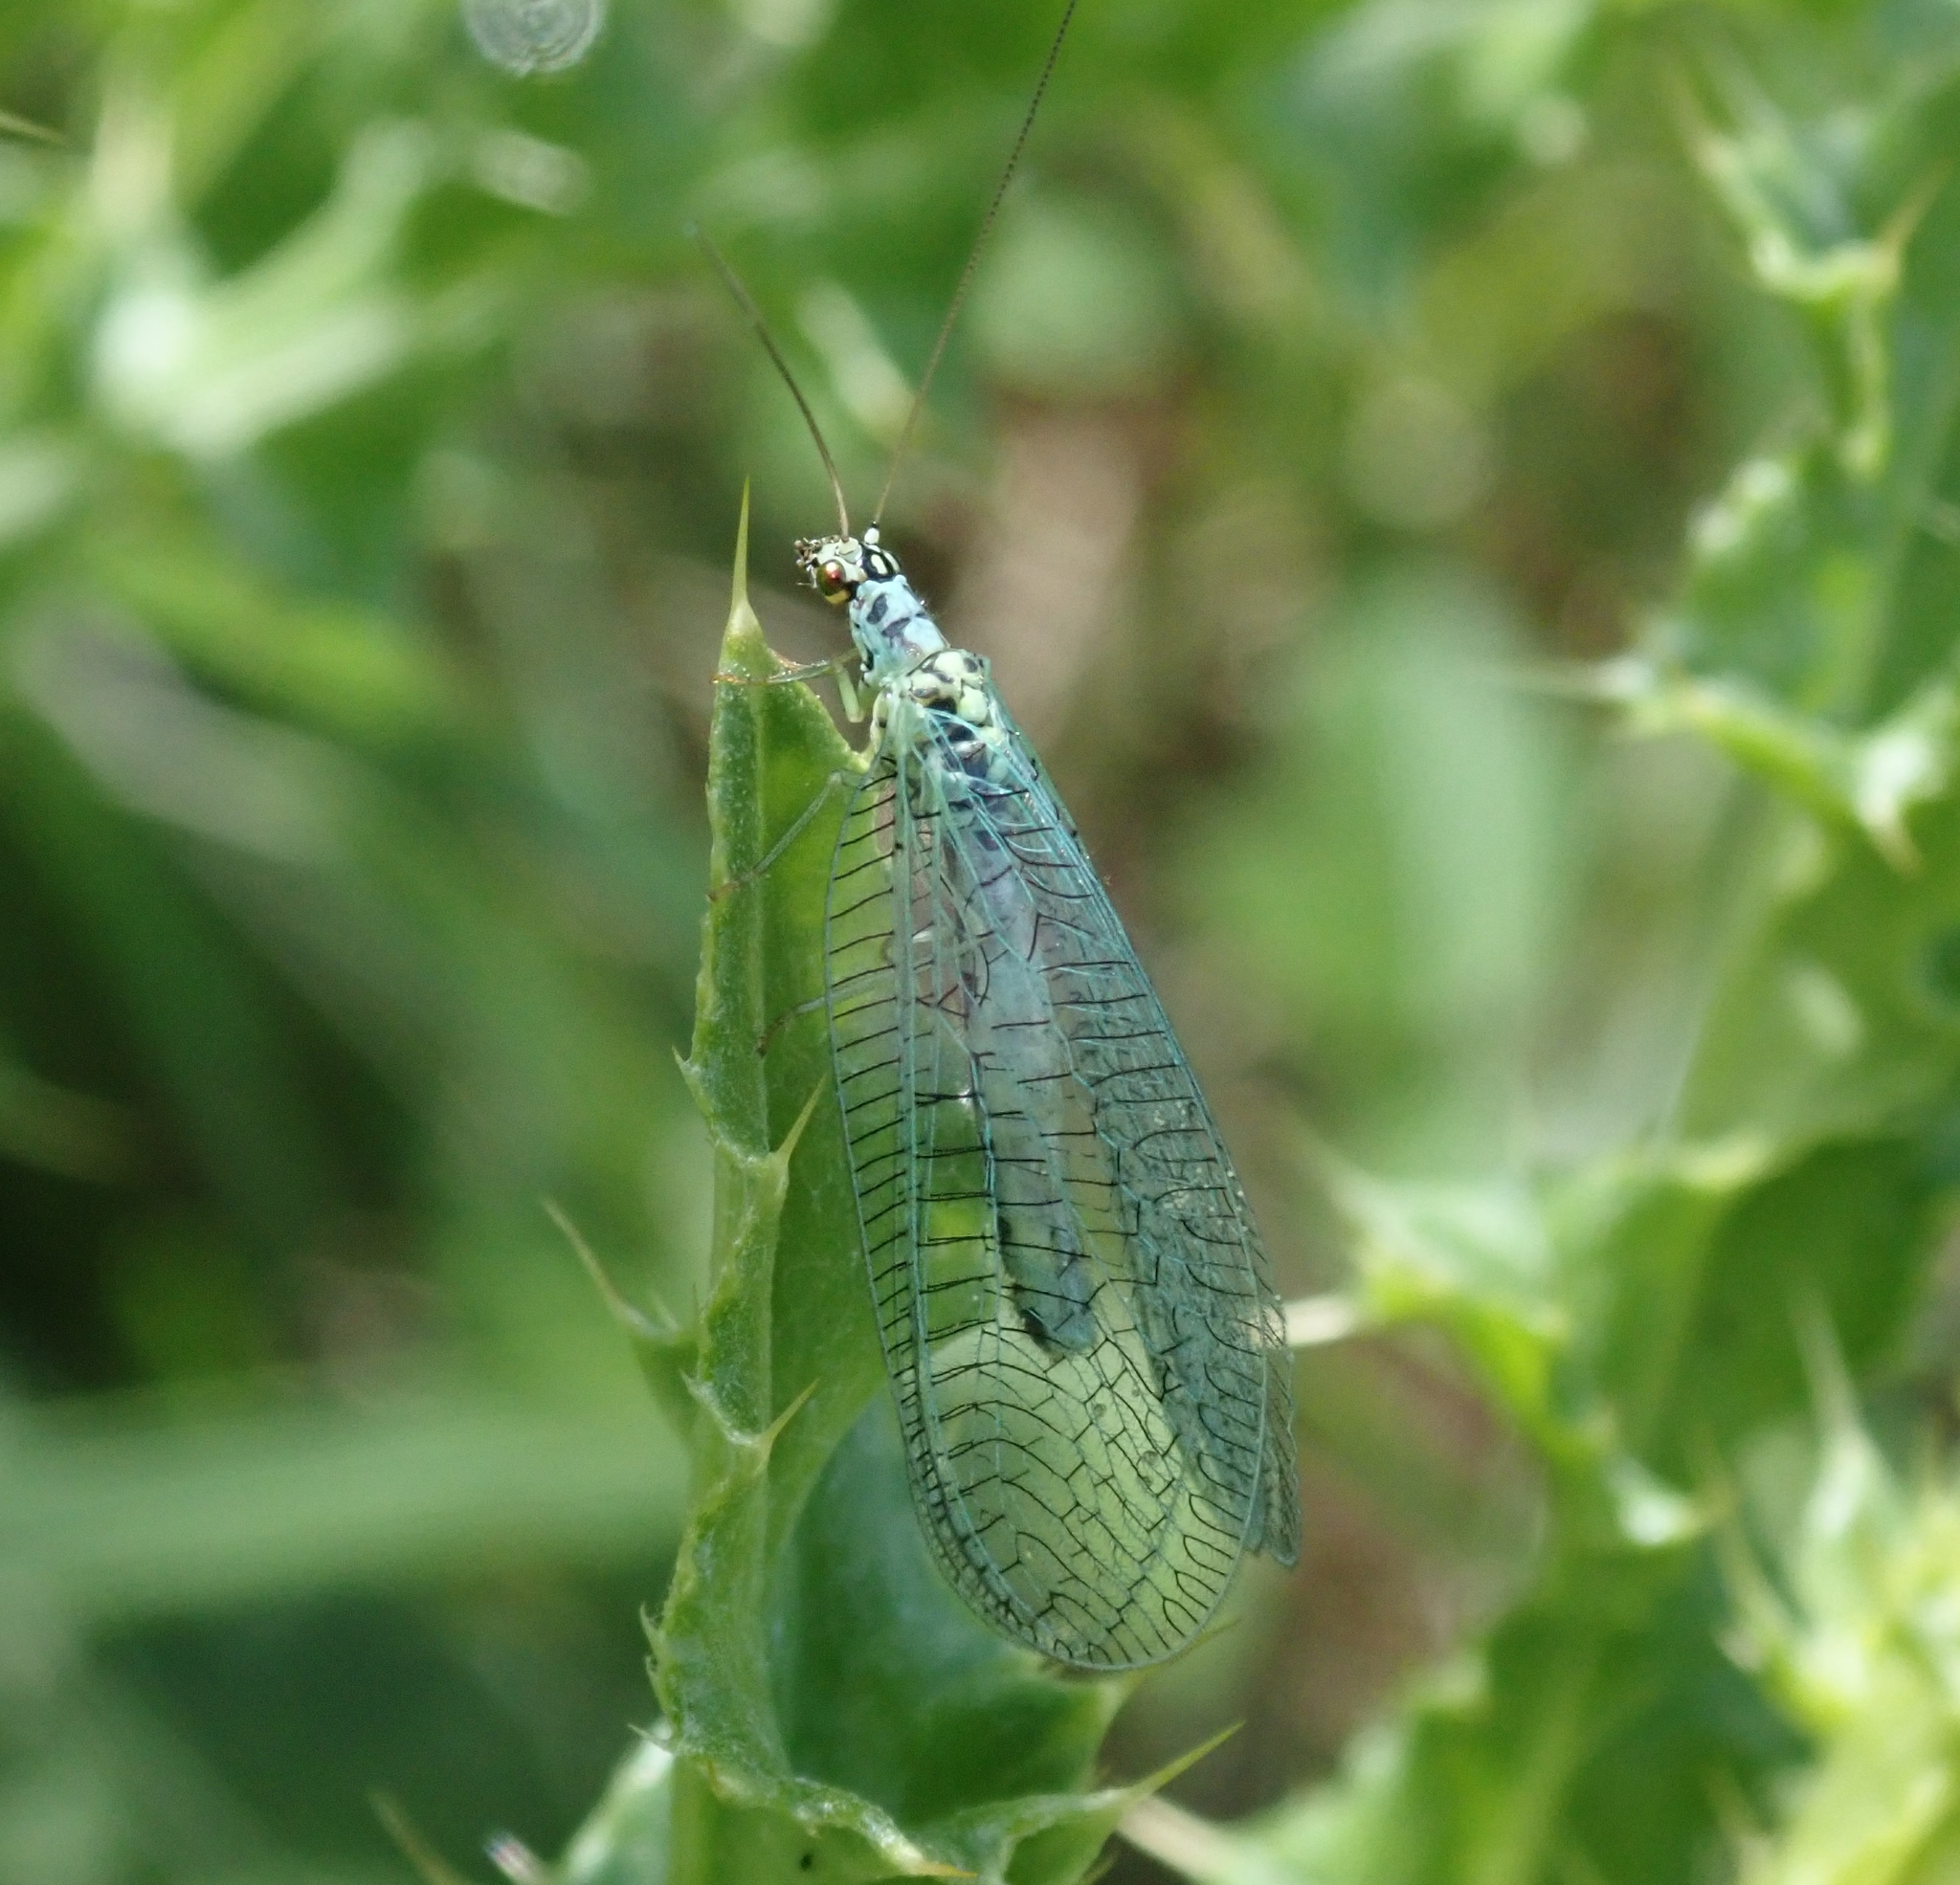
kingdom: Animalia
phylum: Arthropoda
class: Insecta
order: Neuroptera
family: Chrysopidae
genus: Chrysopa
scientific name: Chrysopa perla
